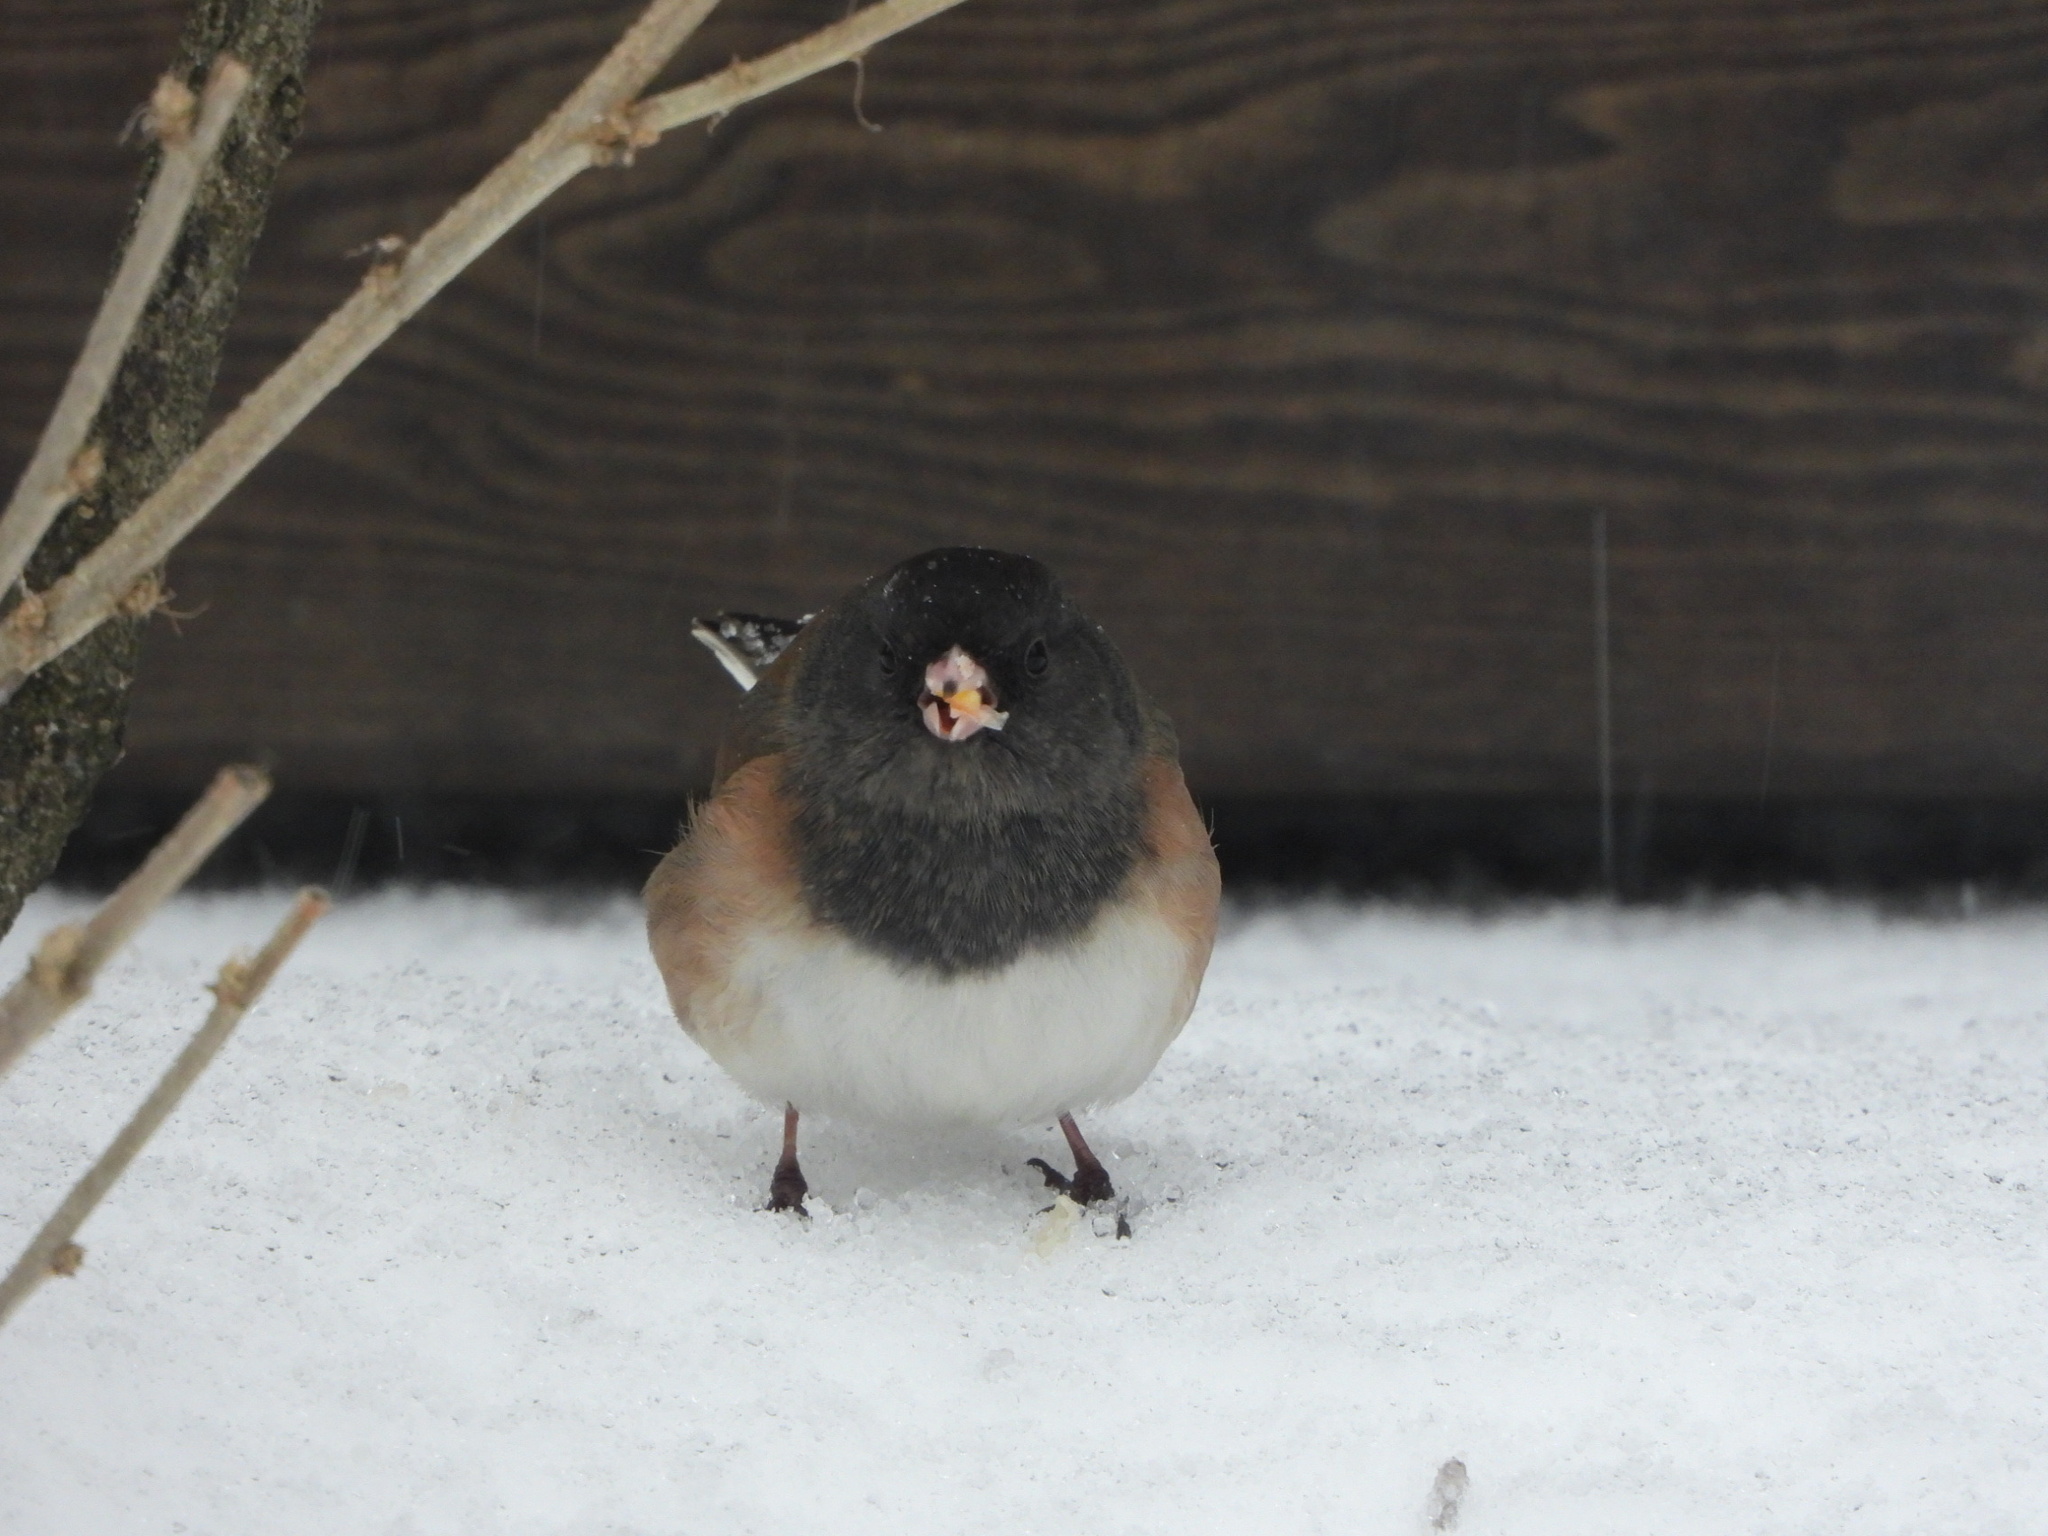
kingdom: Animalia
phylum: Chordata
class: Aves
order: Passeriformes
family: Passerellidae
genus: Junco
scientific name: Junco hyemalis
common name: Dark-eyed junco
